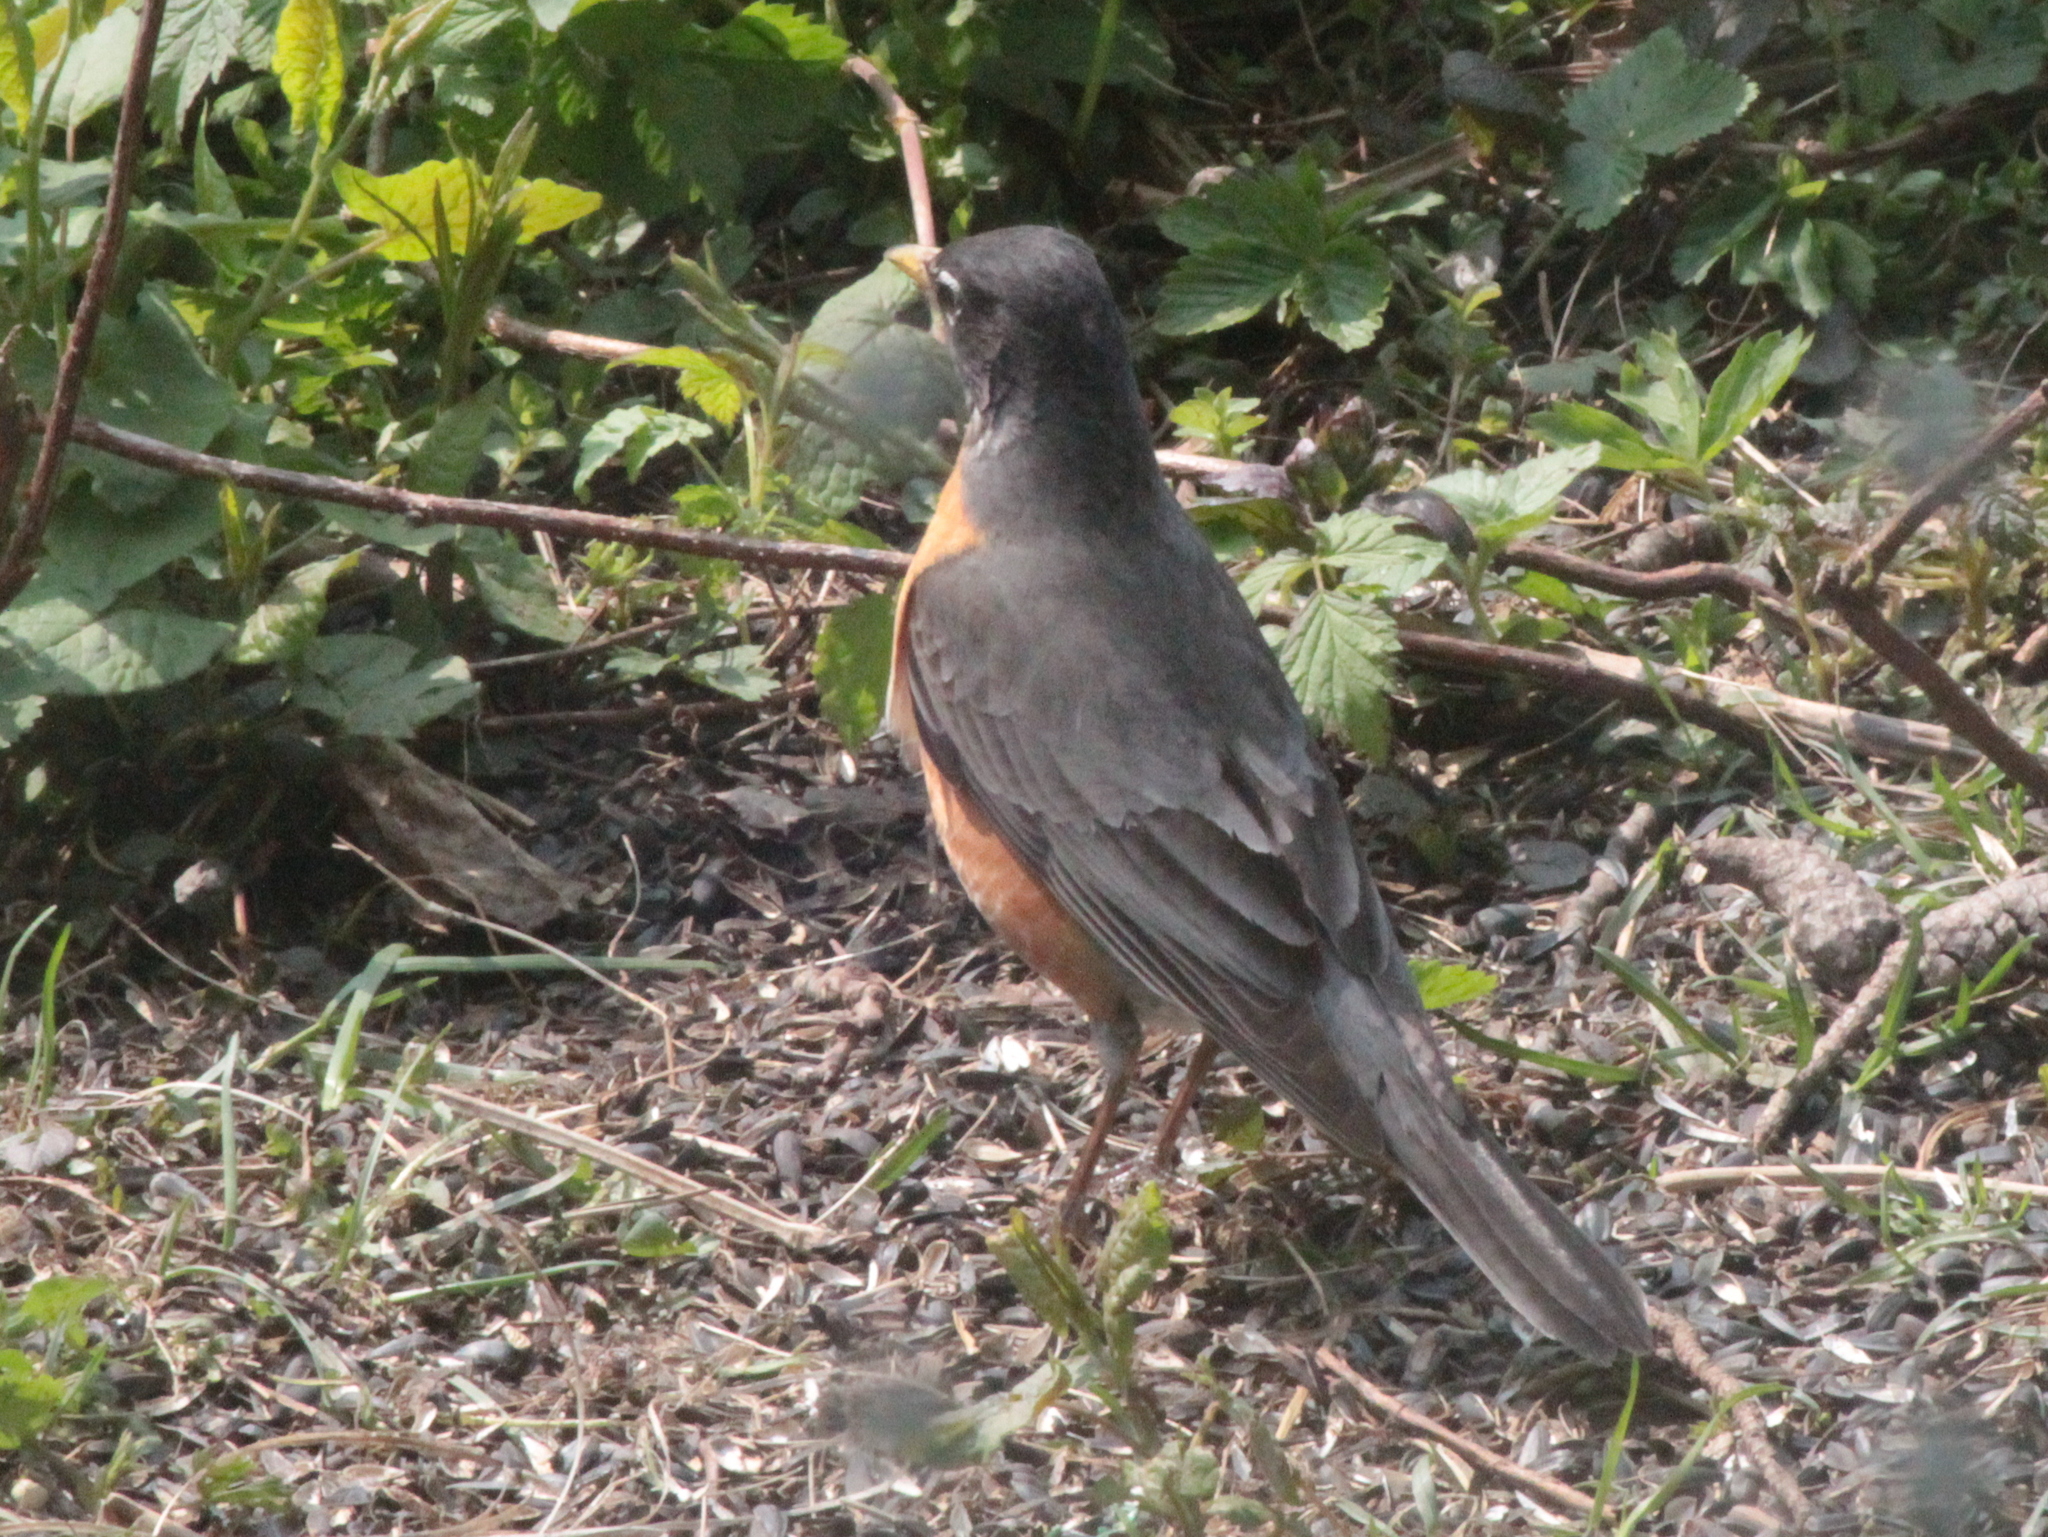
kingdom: Animalia
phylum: Chordata
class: Aves
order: Passeriformes
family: Turdidae
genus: Turdus
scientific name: Turdus migratorius
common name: American robin
